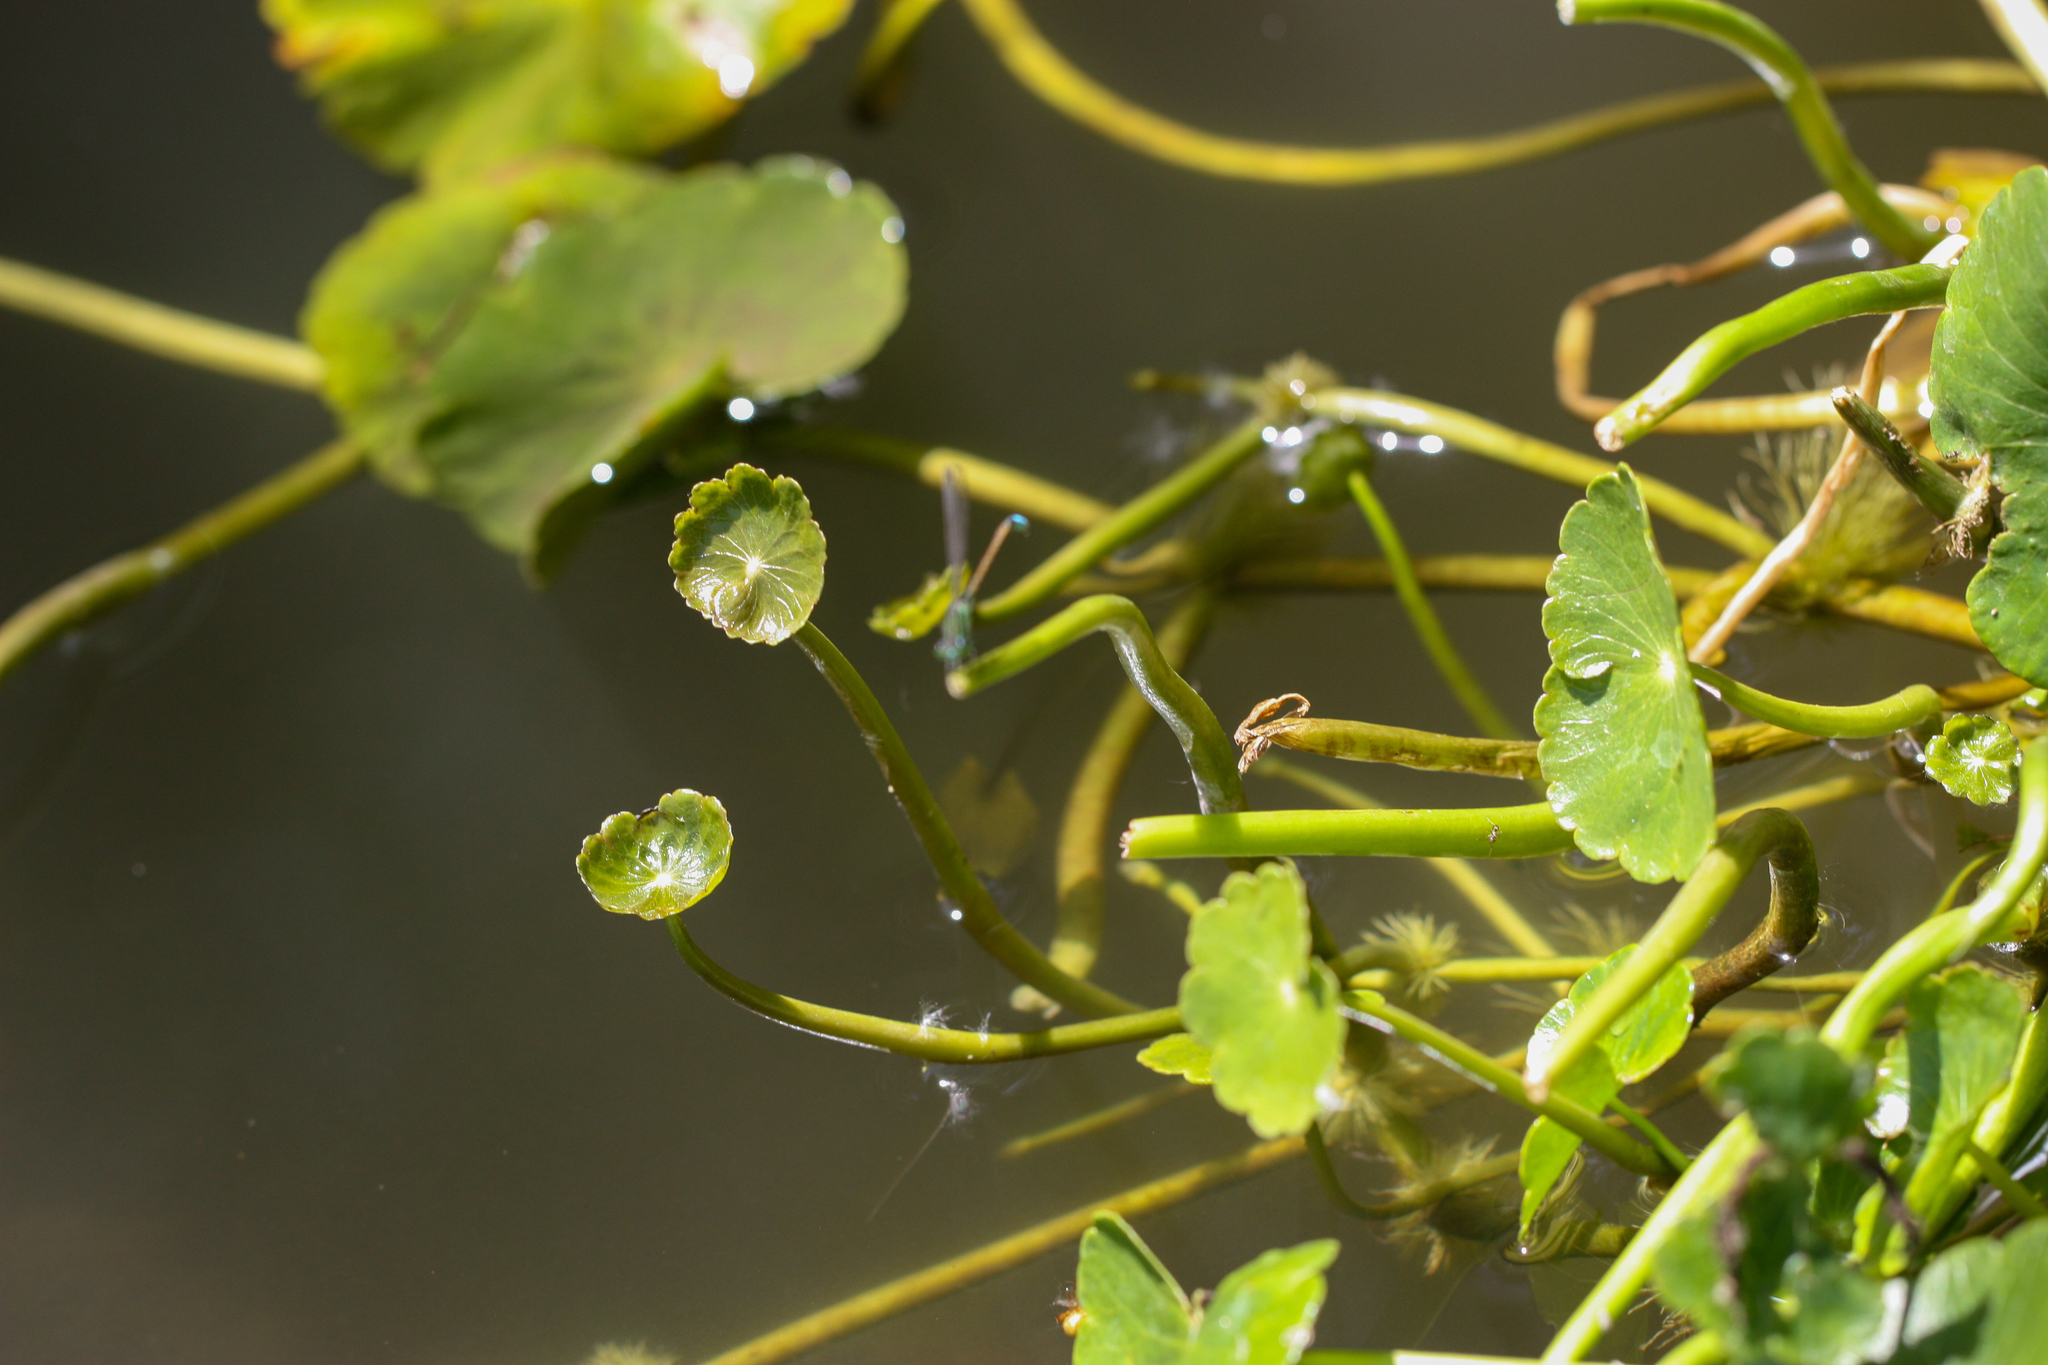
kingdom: Plantae
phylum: Tracheophyta
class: Magnoliopsida
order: Apiales
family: Araliaceae
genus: Hydrocotyle
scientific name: Hydrocotyle ranunculoides
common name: Floating pennywort
